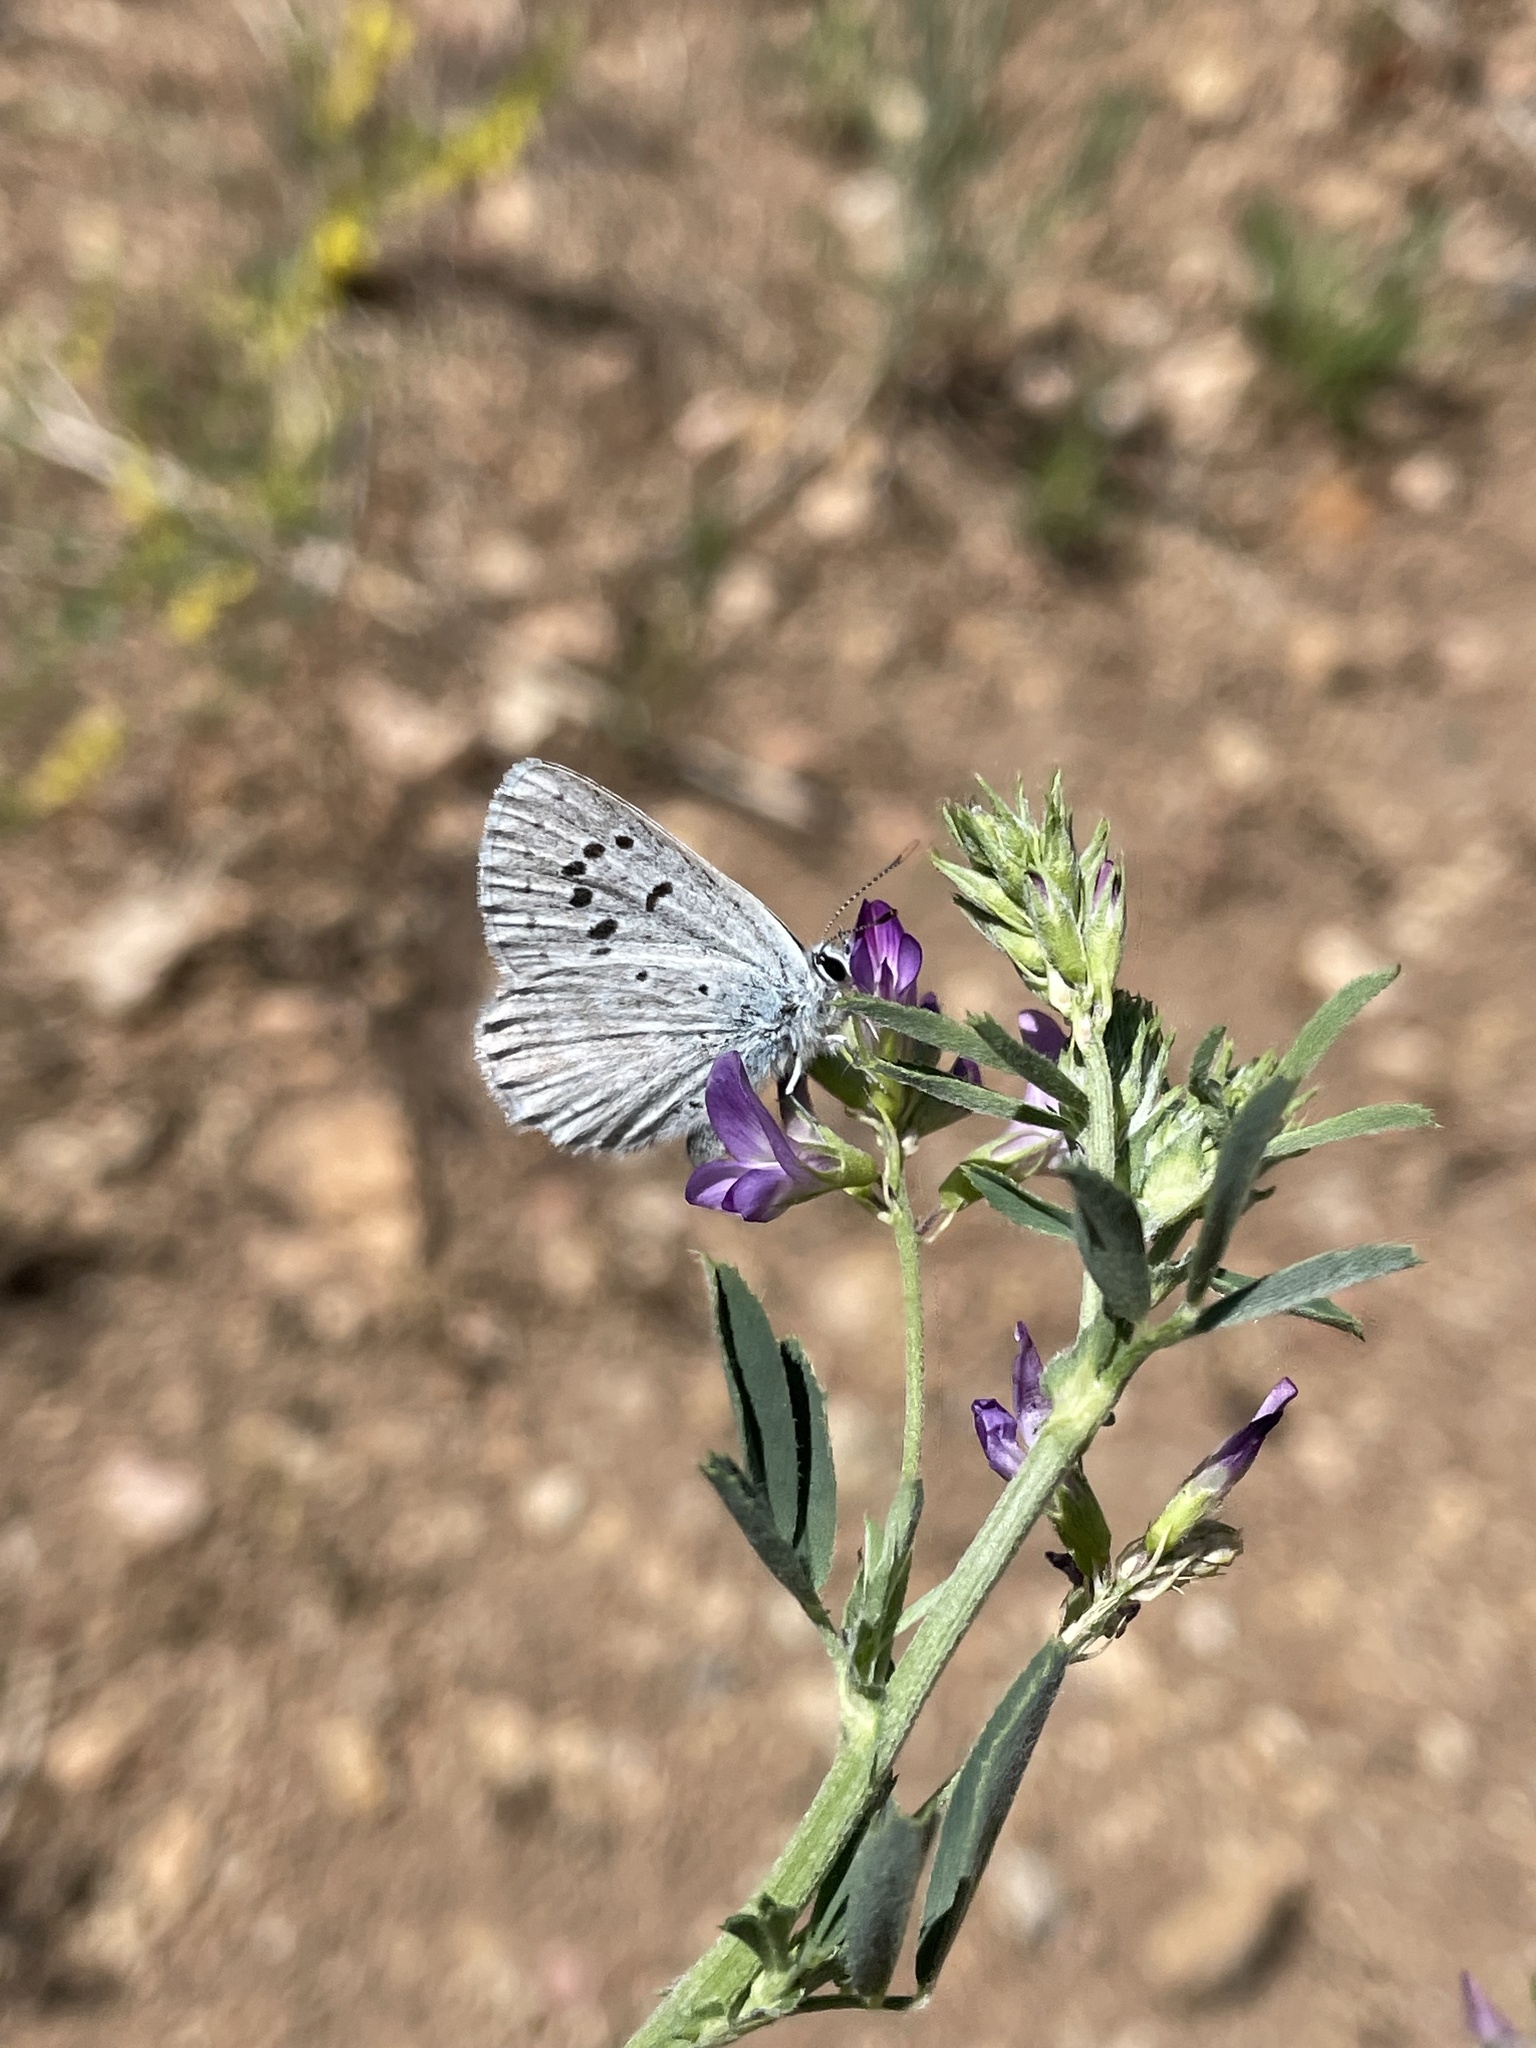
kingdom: Animalia
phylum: Arthropoda
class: Insecta
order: Lepidoptera
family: Lycaenidae
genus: Icaricia
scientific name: Icaricia icarioides
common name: Boisduval's blue
